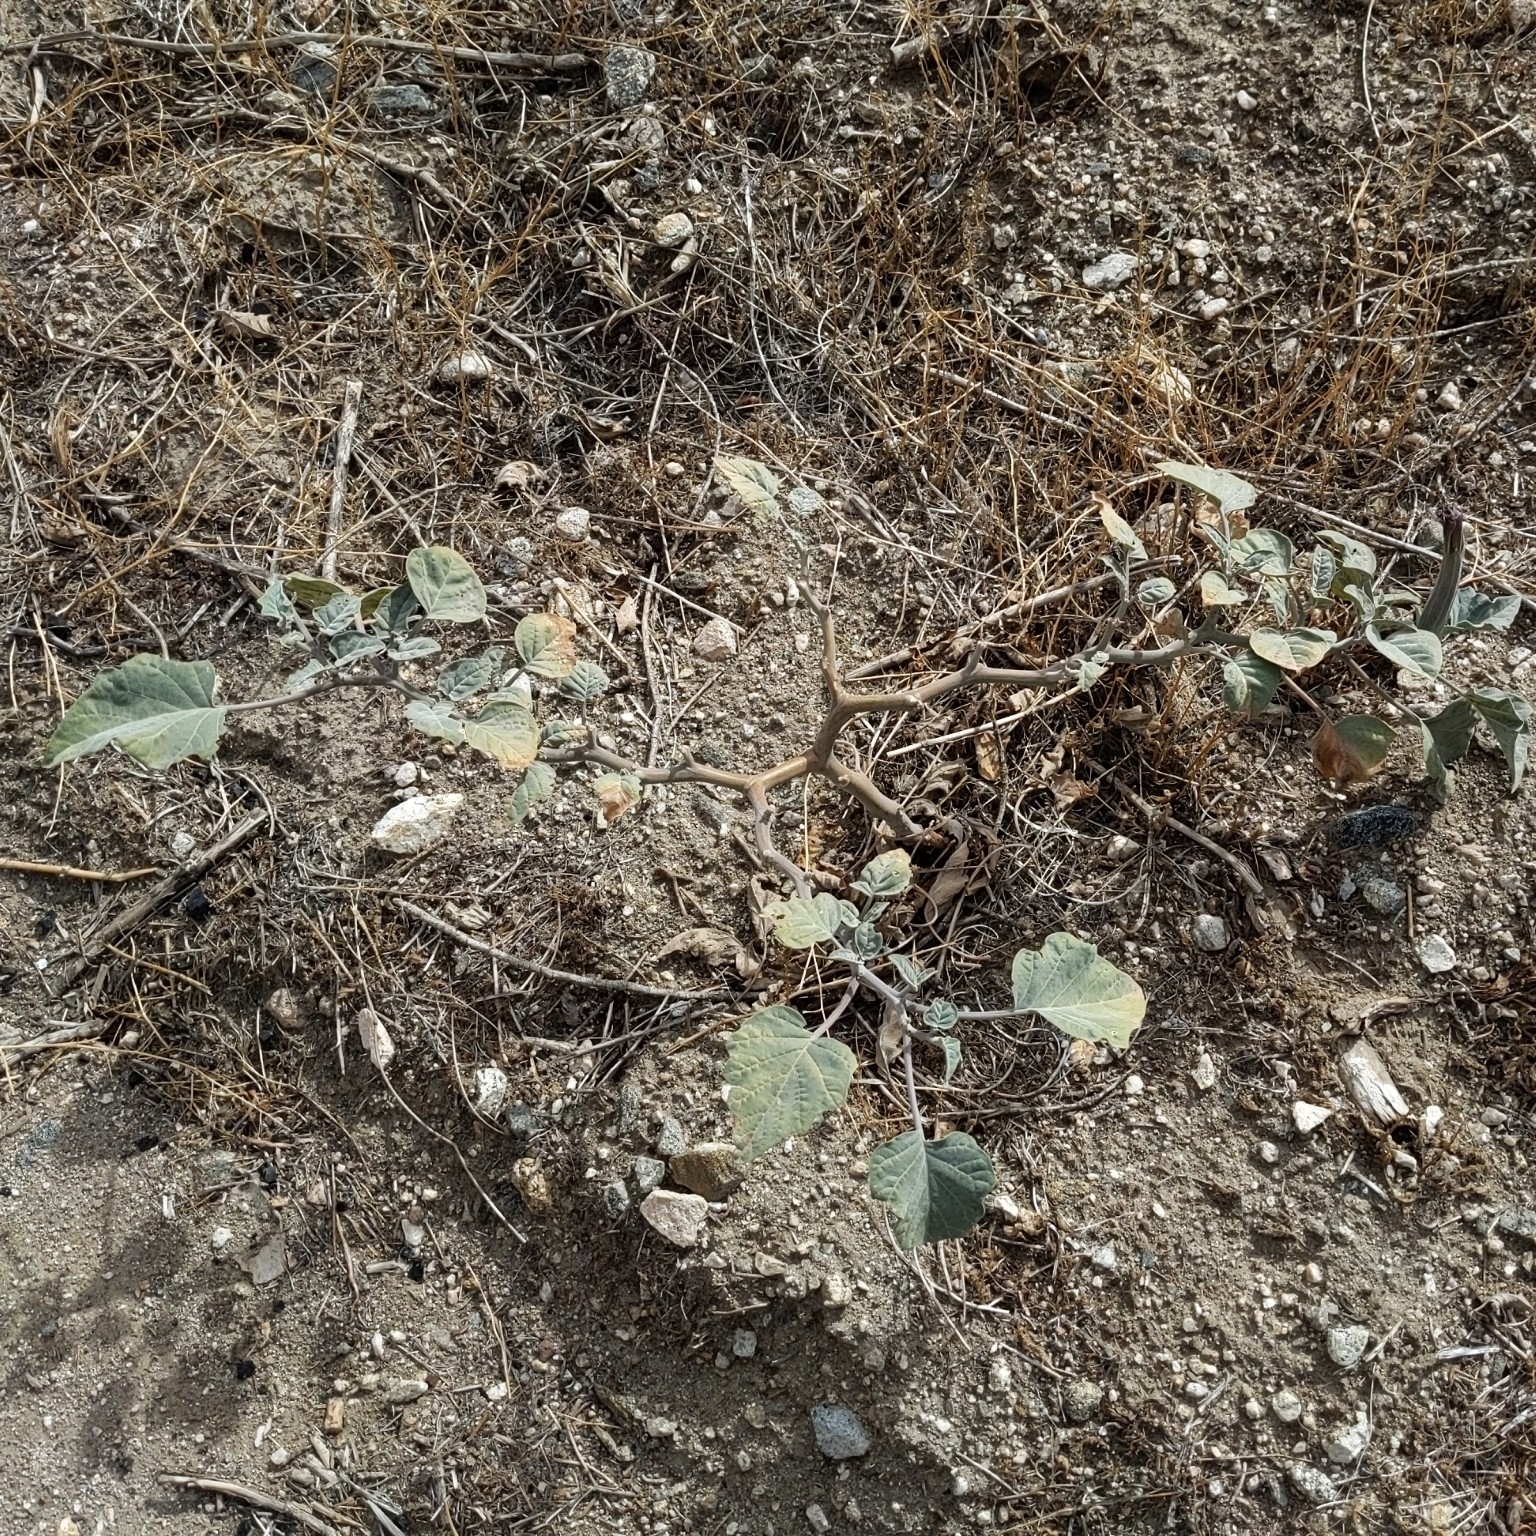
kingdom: Plantae
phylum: Tracheophyta
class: Magnoliopsida
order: Solanales
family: Solanaceae
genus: Datura
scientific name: Datura wrightii
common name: Sacred thorn-apple
